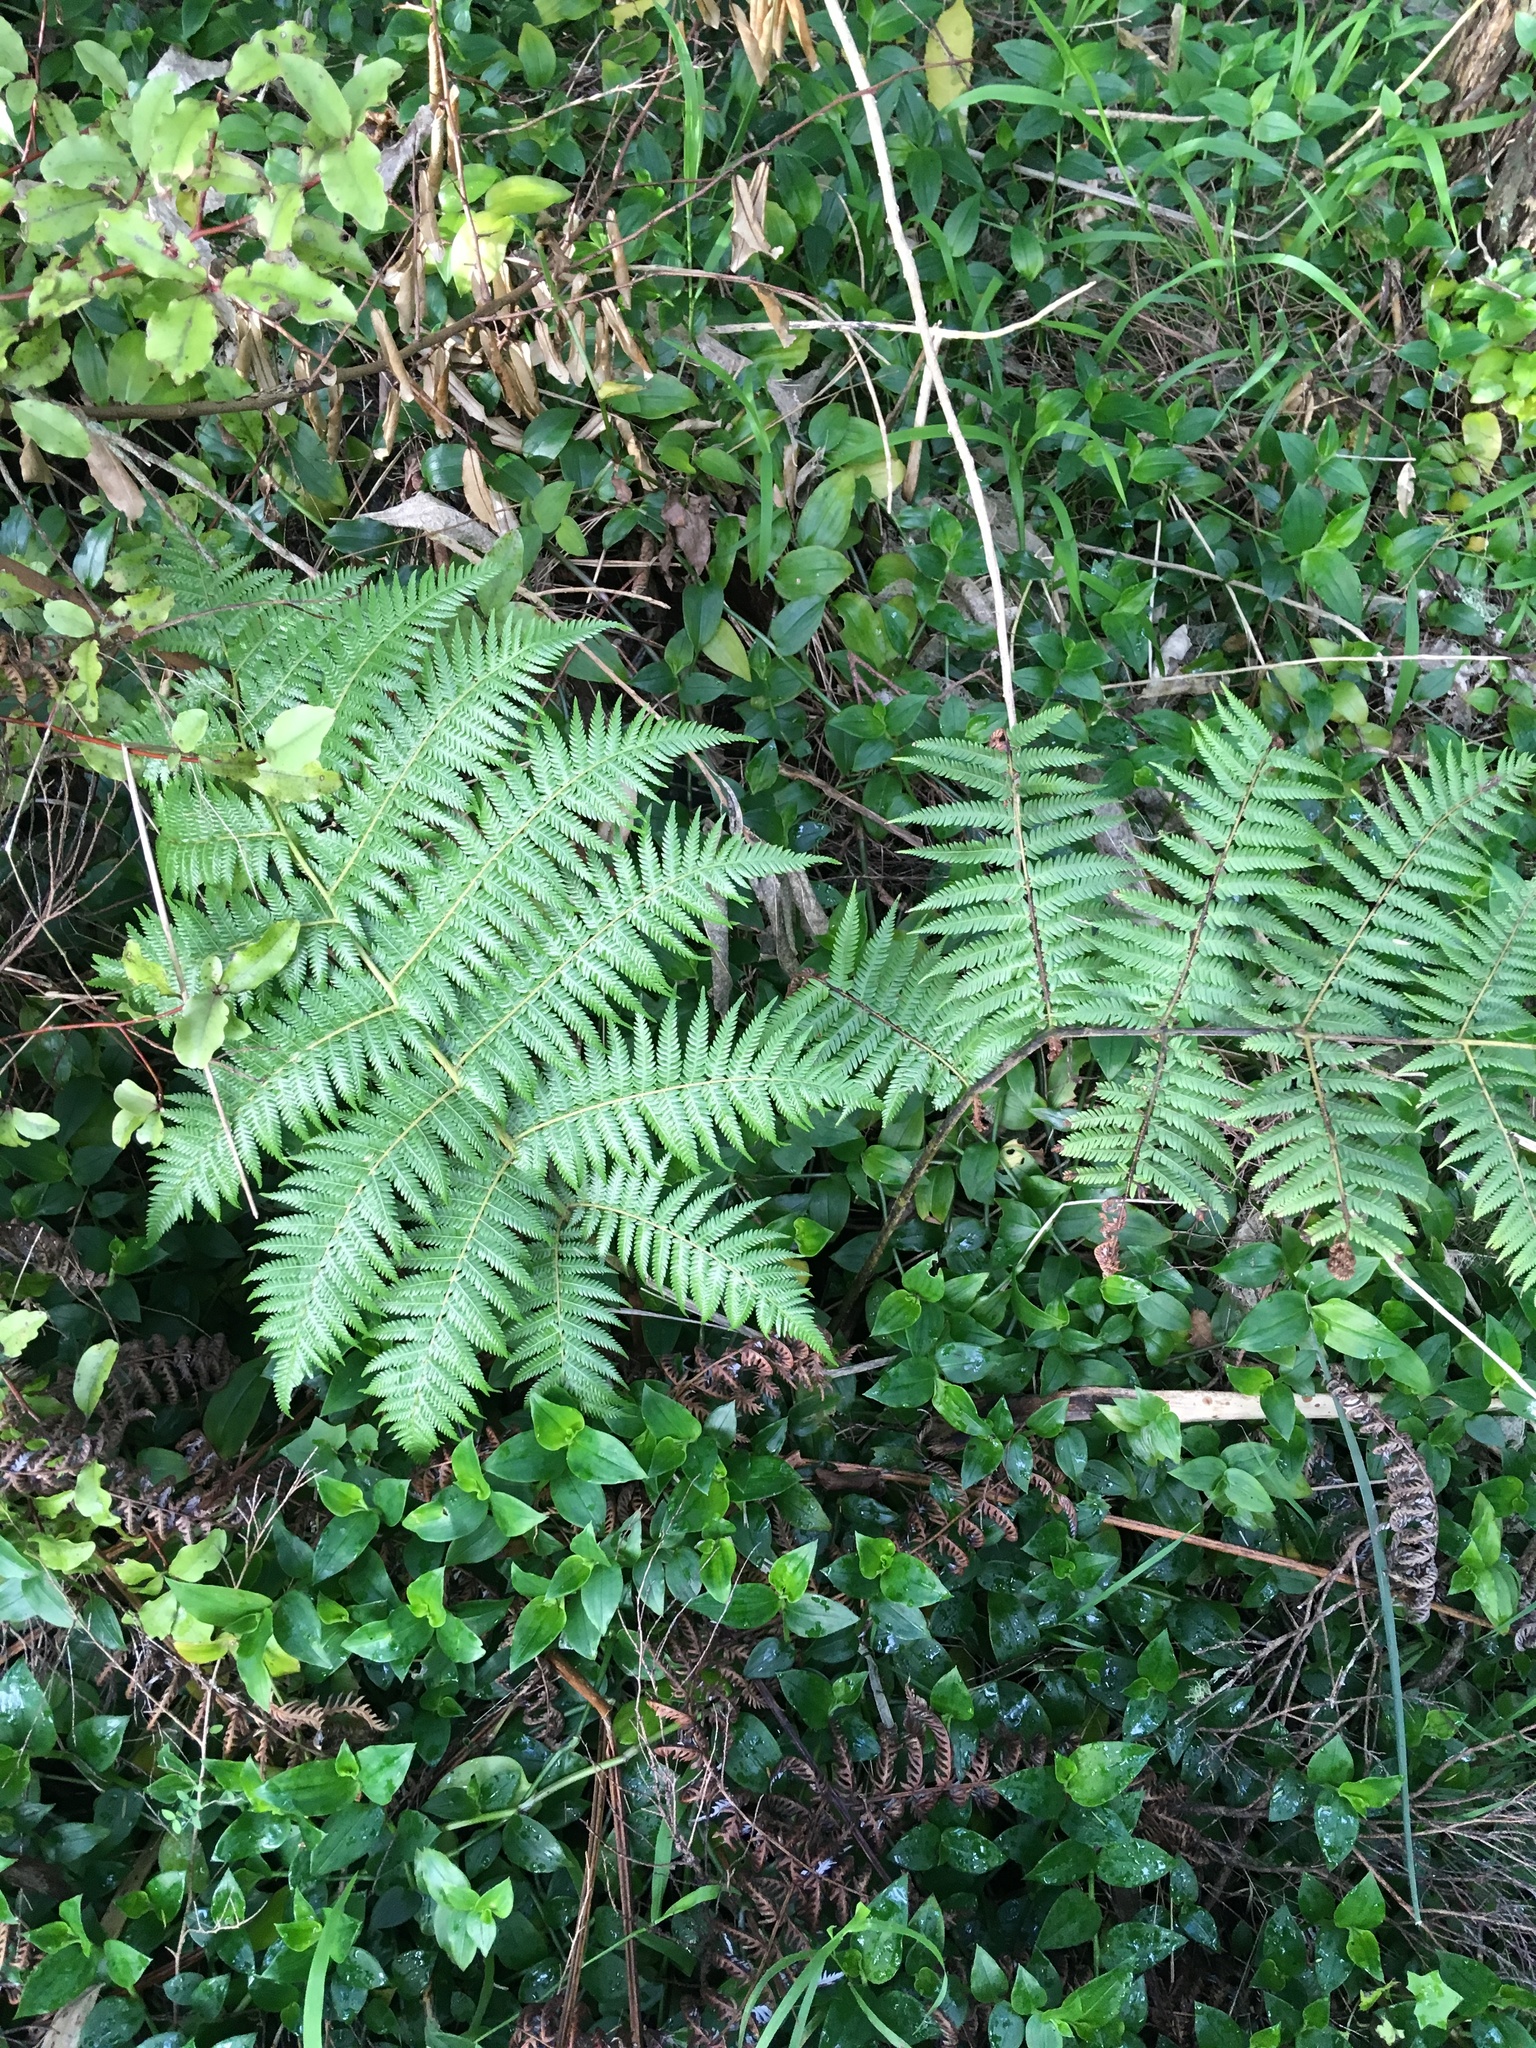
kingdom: Plantae
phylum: Tracheophyta
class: Polypodiopsida
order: Cyatheales
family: Cyatheaceae
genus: Alsophila
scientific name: Alsophila dealbata
